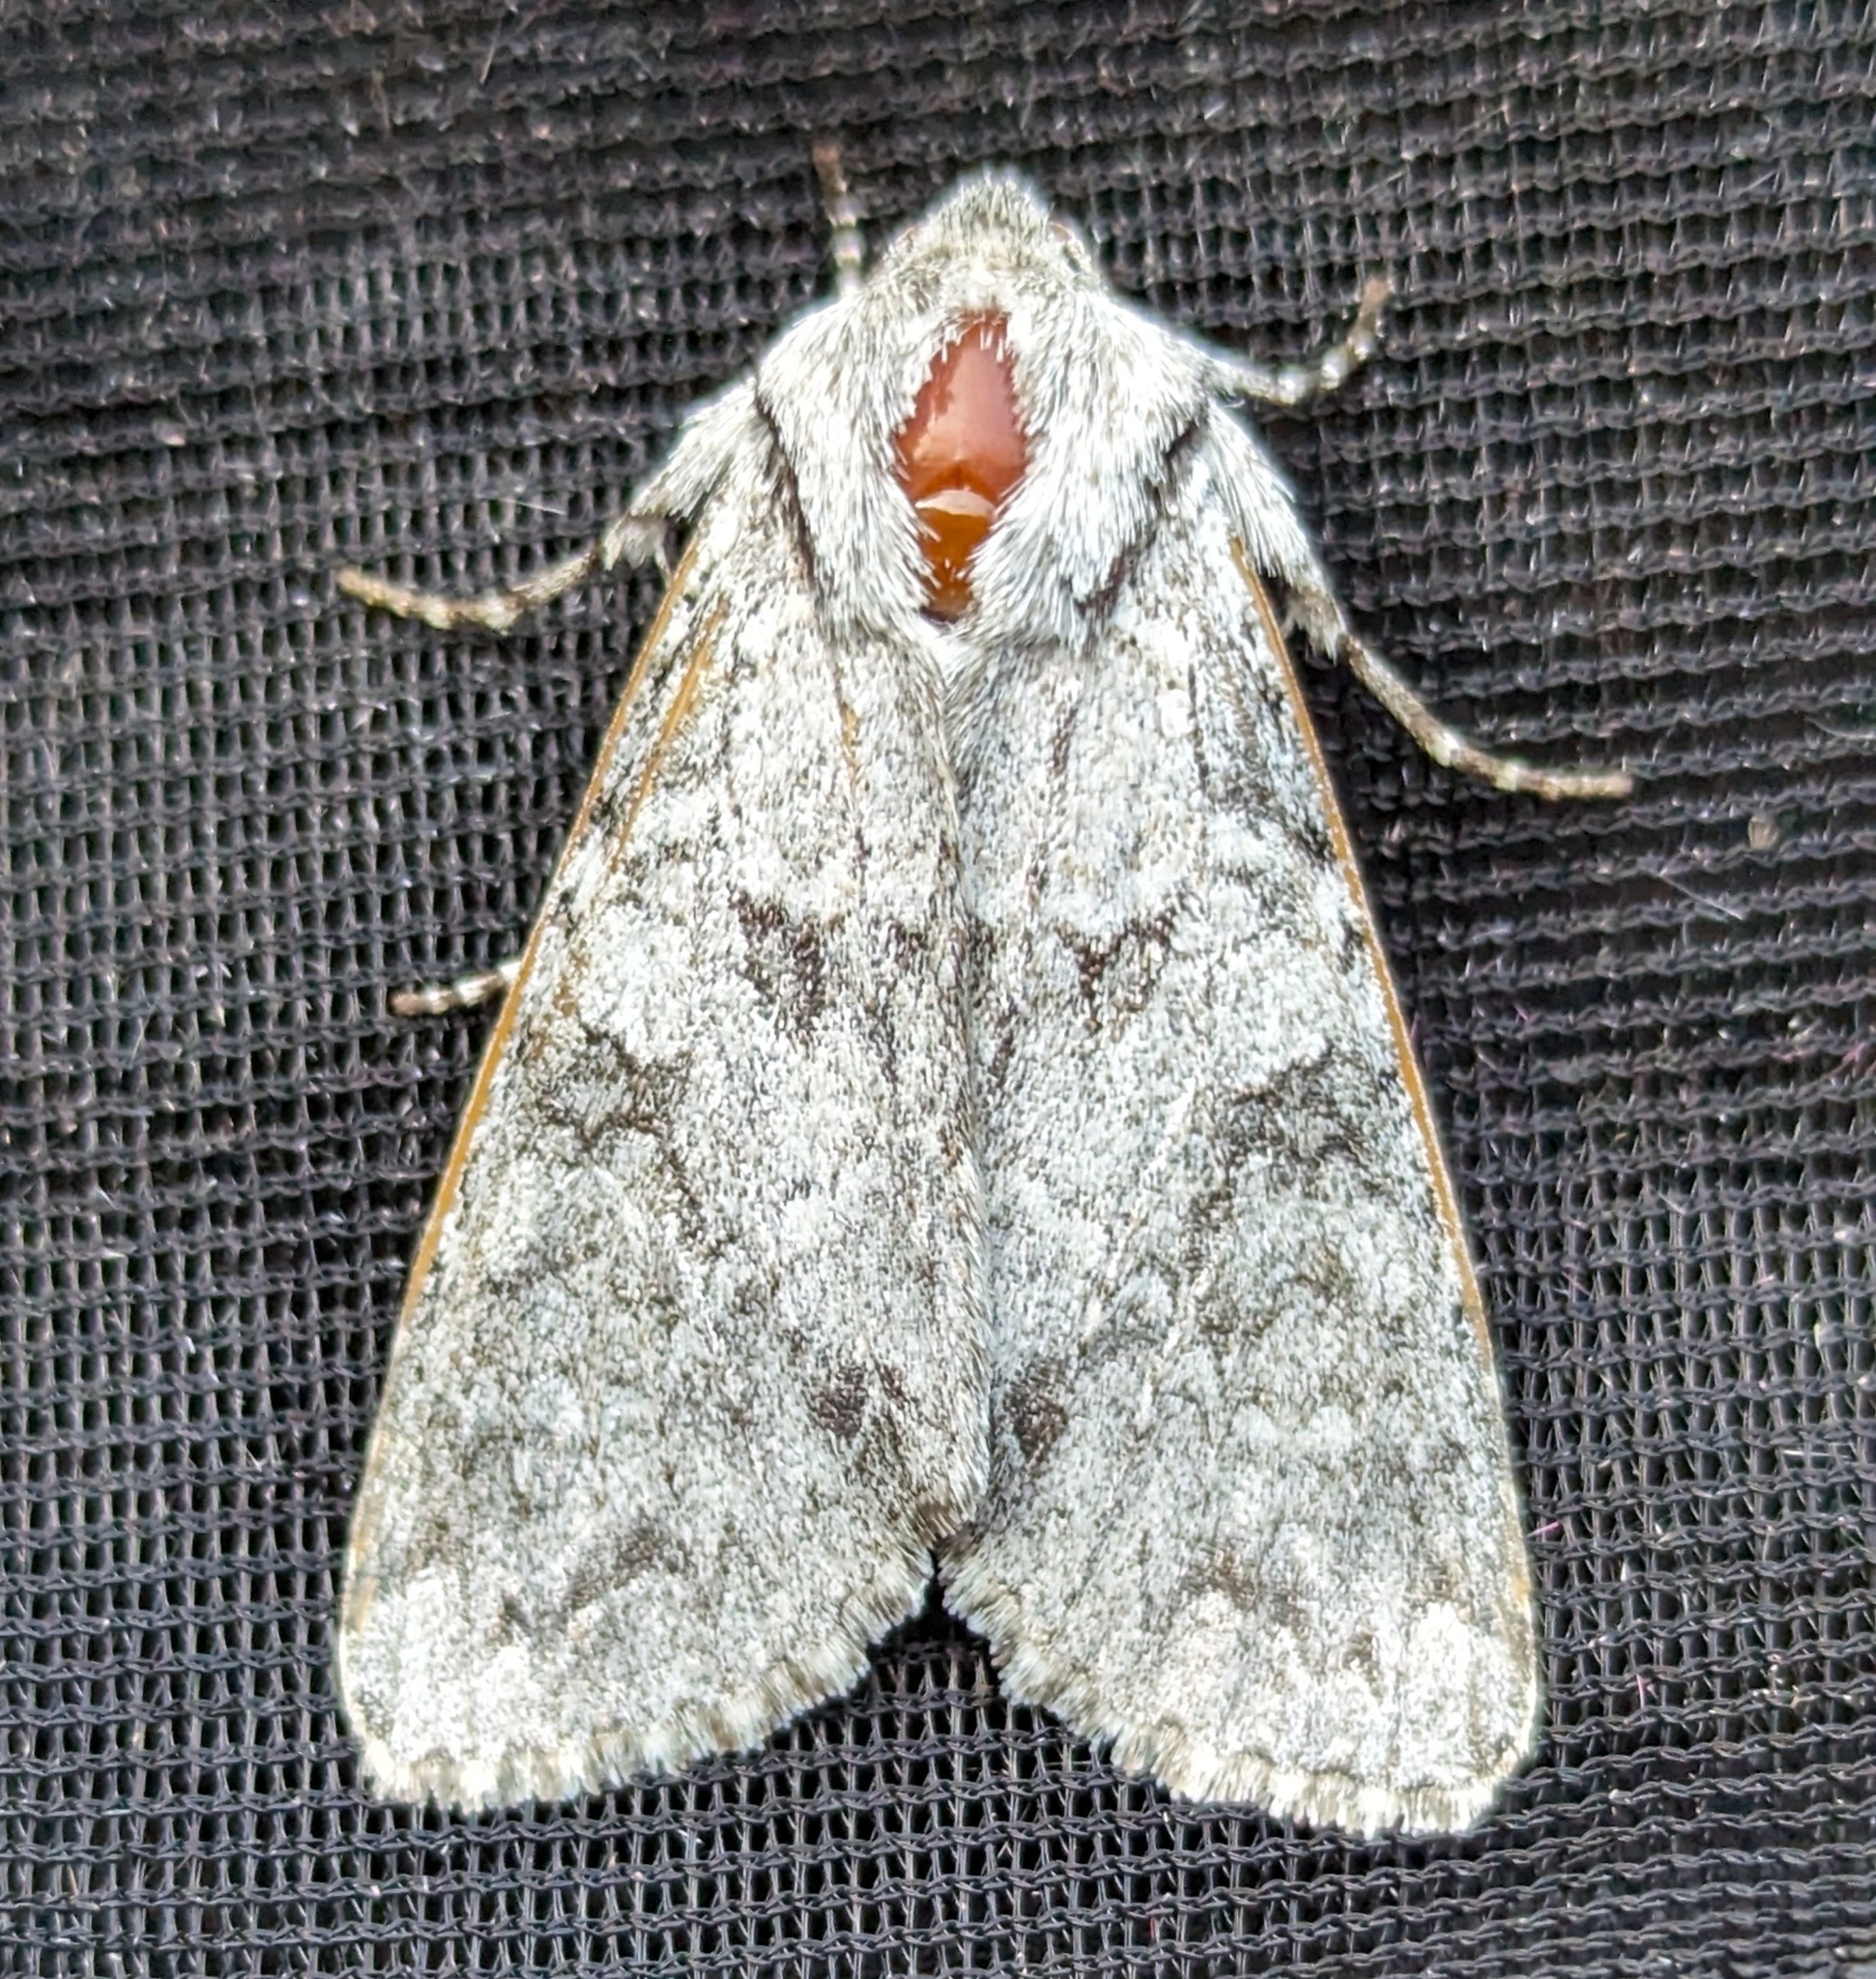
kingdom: Animalia
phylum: Arthropoda
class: Insecta
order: Lepidoptera
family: Noctuidae
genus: Polia
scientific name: Polia piniae
